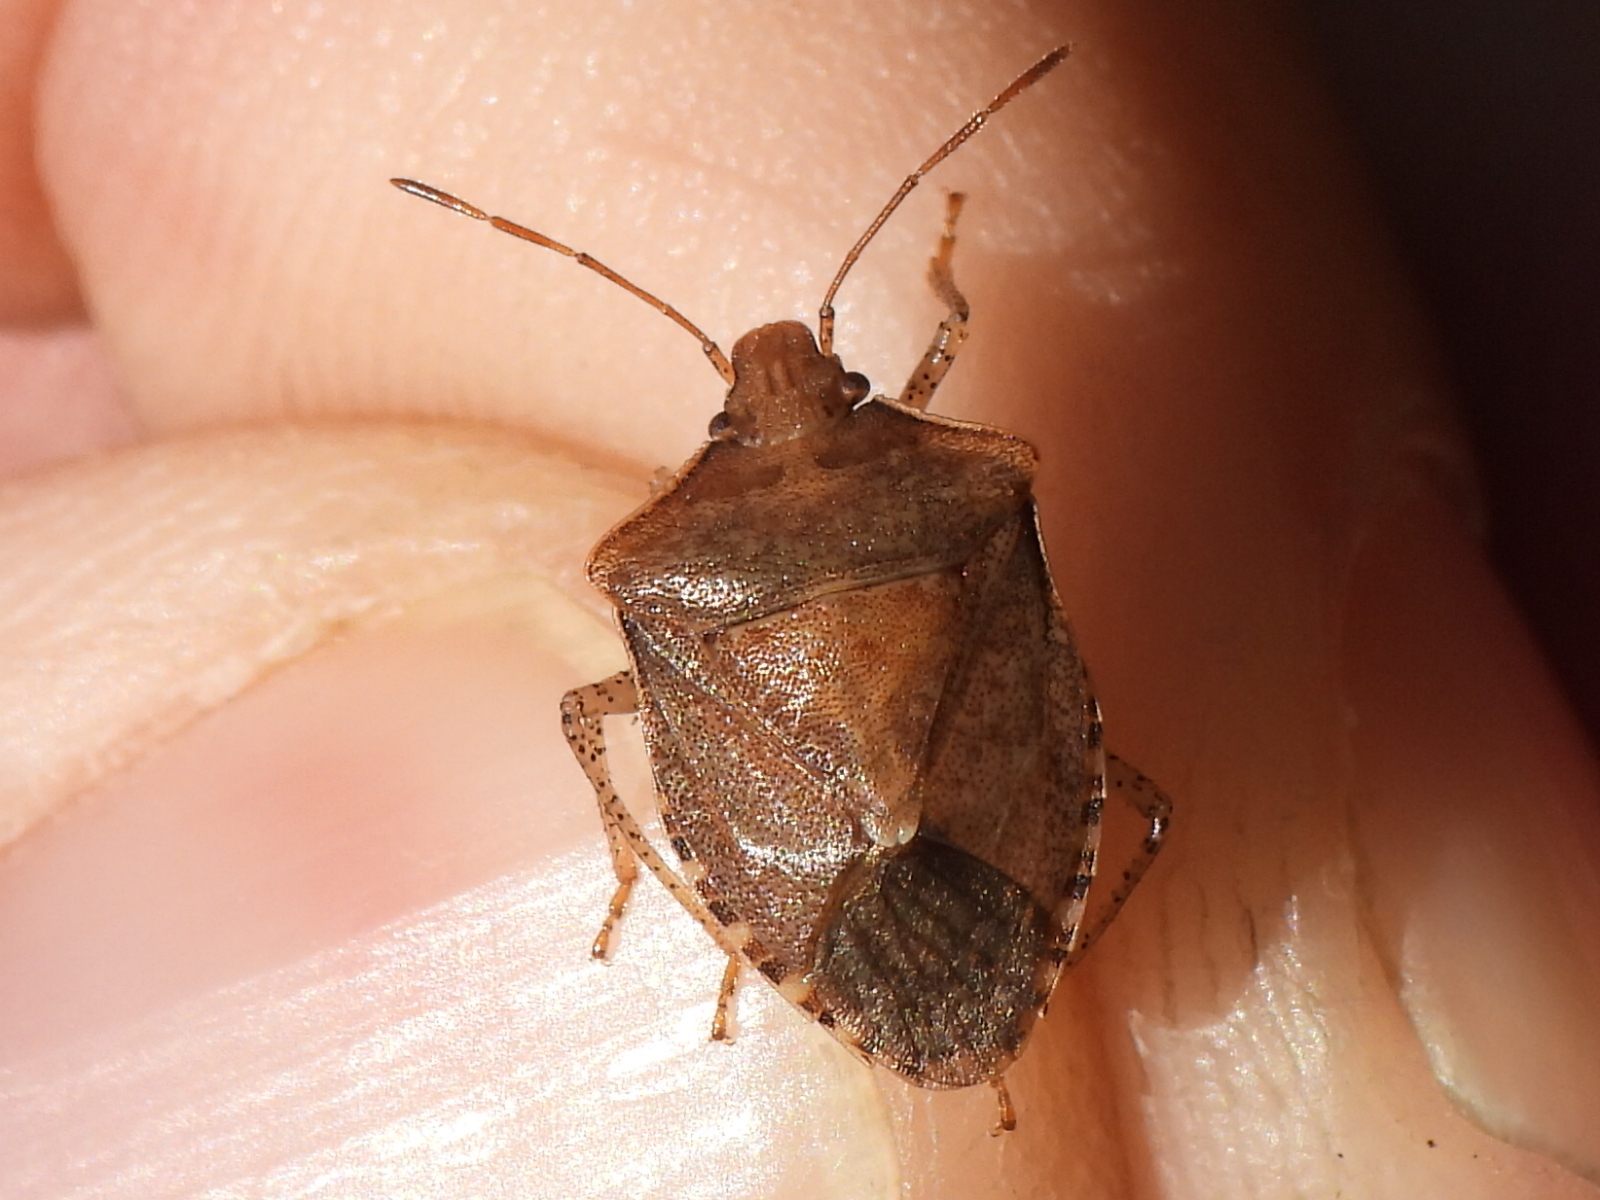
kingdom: Animalia
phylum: Arthropoda
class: Insecta
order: Hemiptera
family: Pentatomidae
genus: Euschistus
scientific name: Euschistus servus
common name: Brown stink bug
